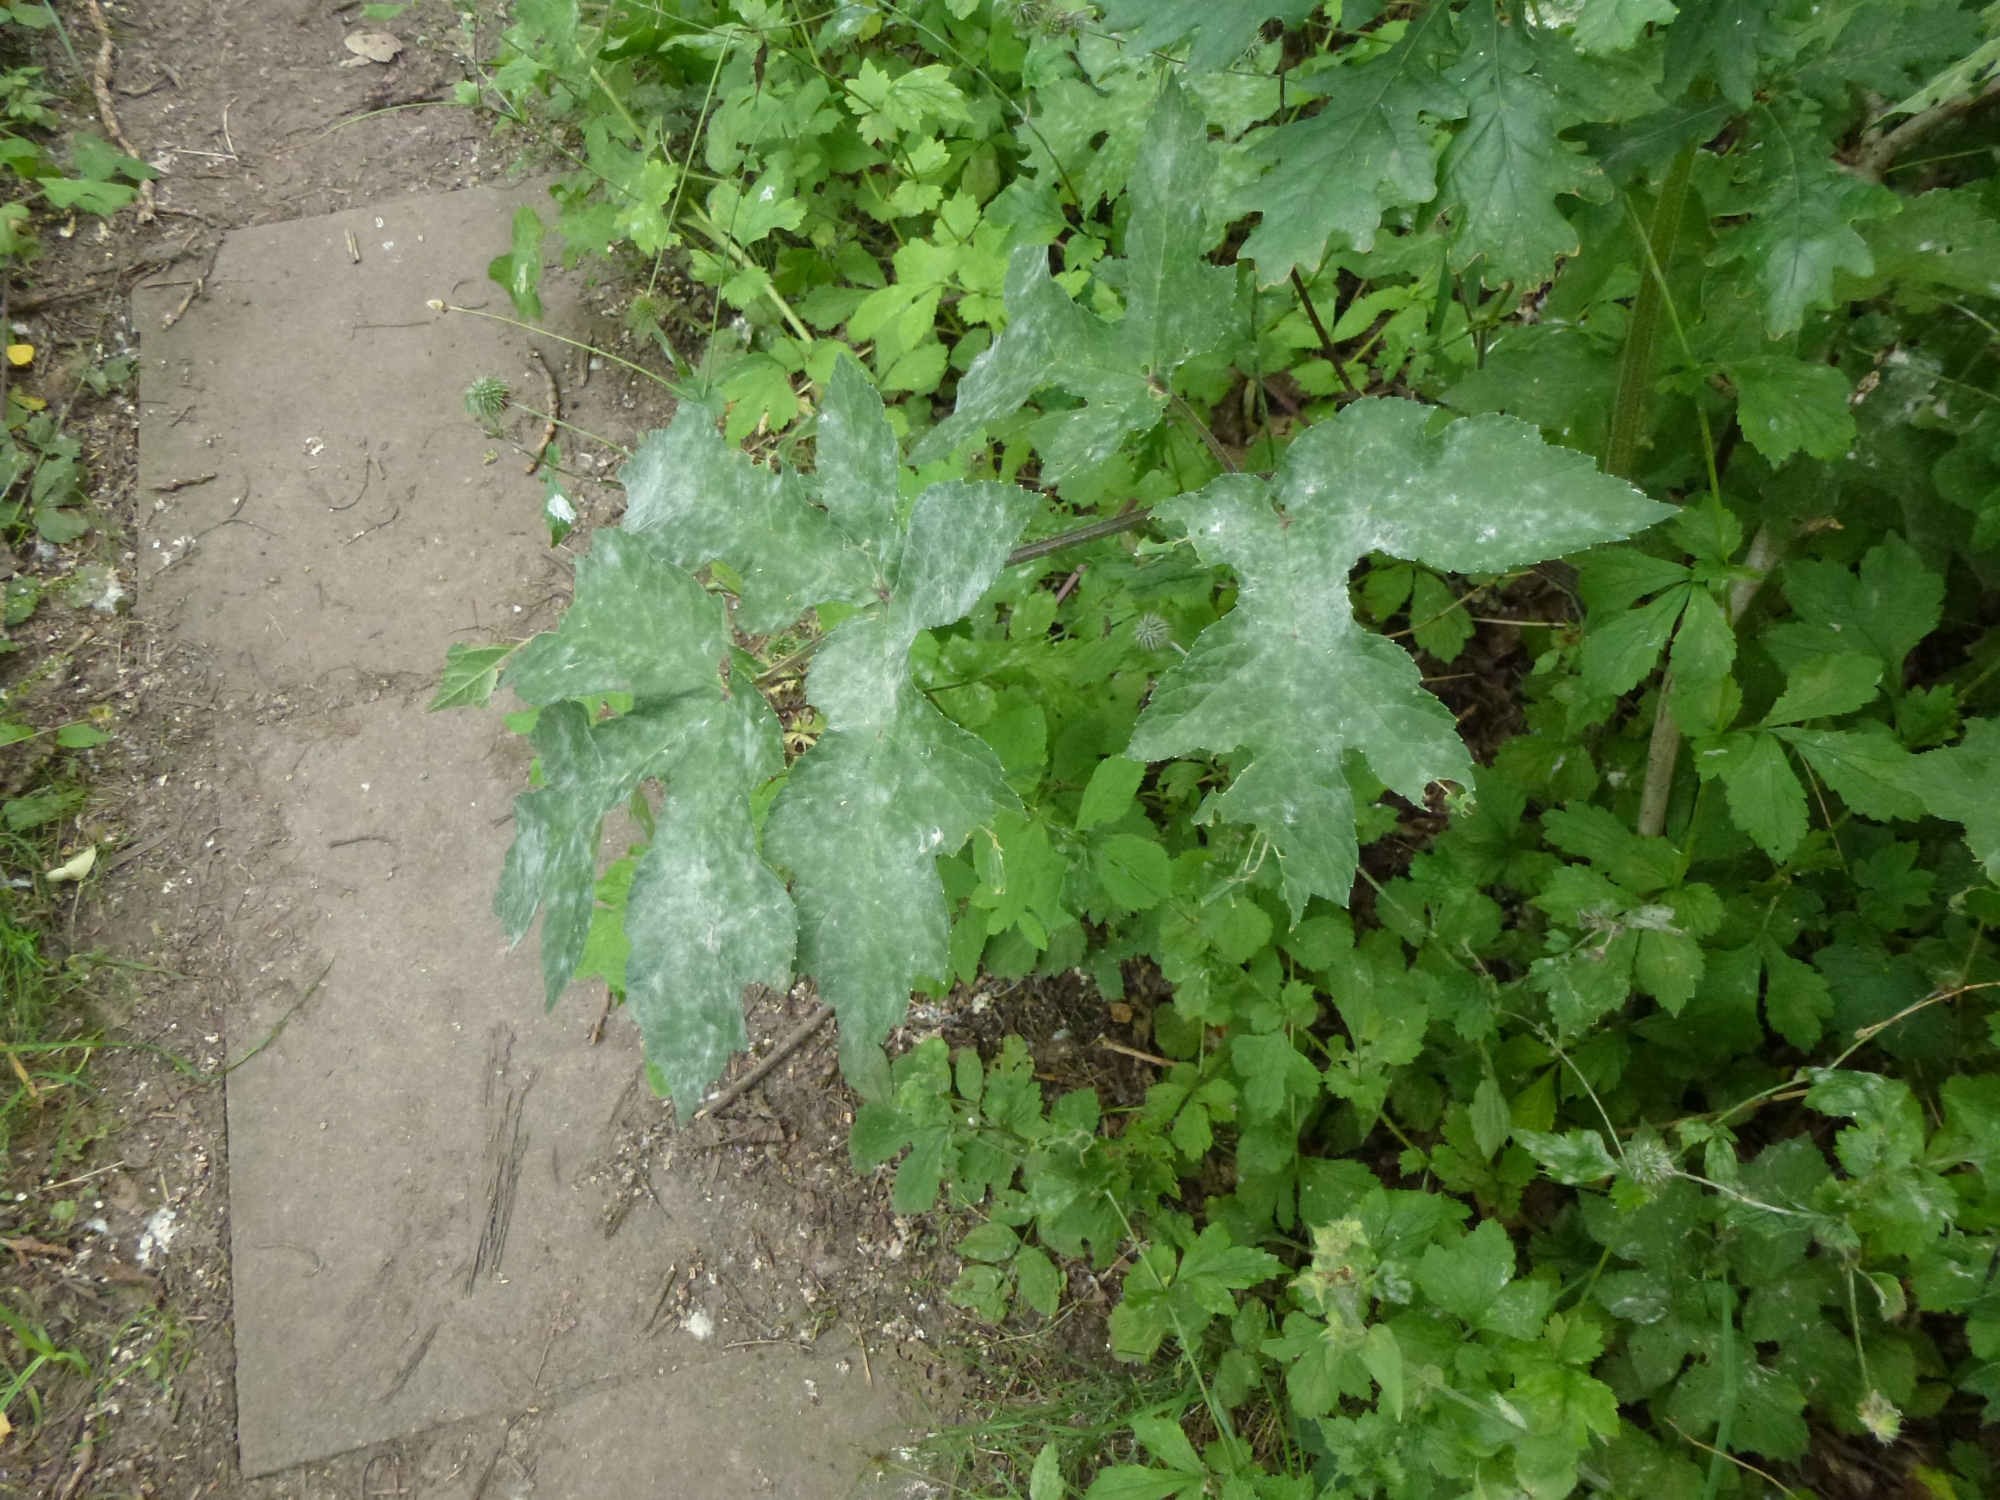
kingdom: Fungi
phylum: Ascomycota
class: Leotiomycetes
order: Helotiales
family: Erysiphaceae
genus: Erysiphe
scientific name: Erysiphe heraclei
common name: Umbellifer mildew
